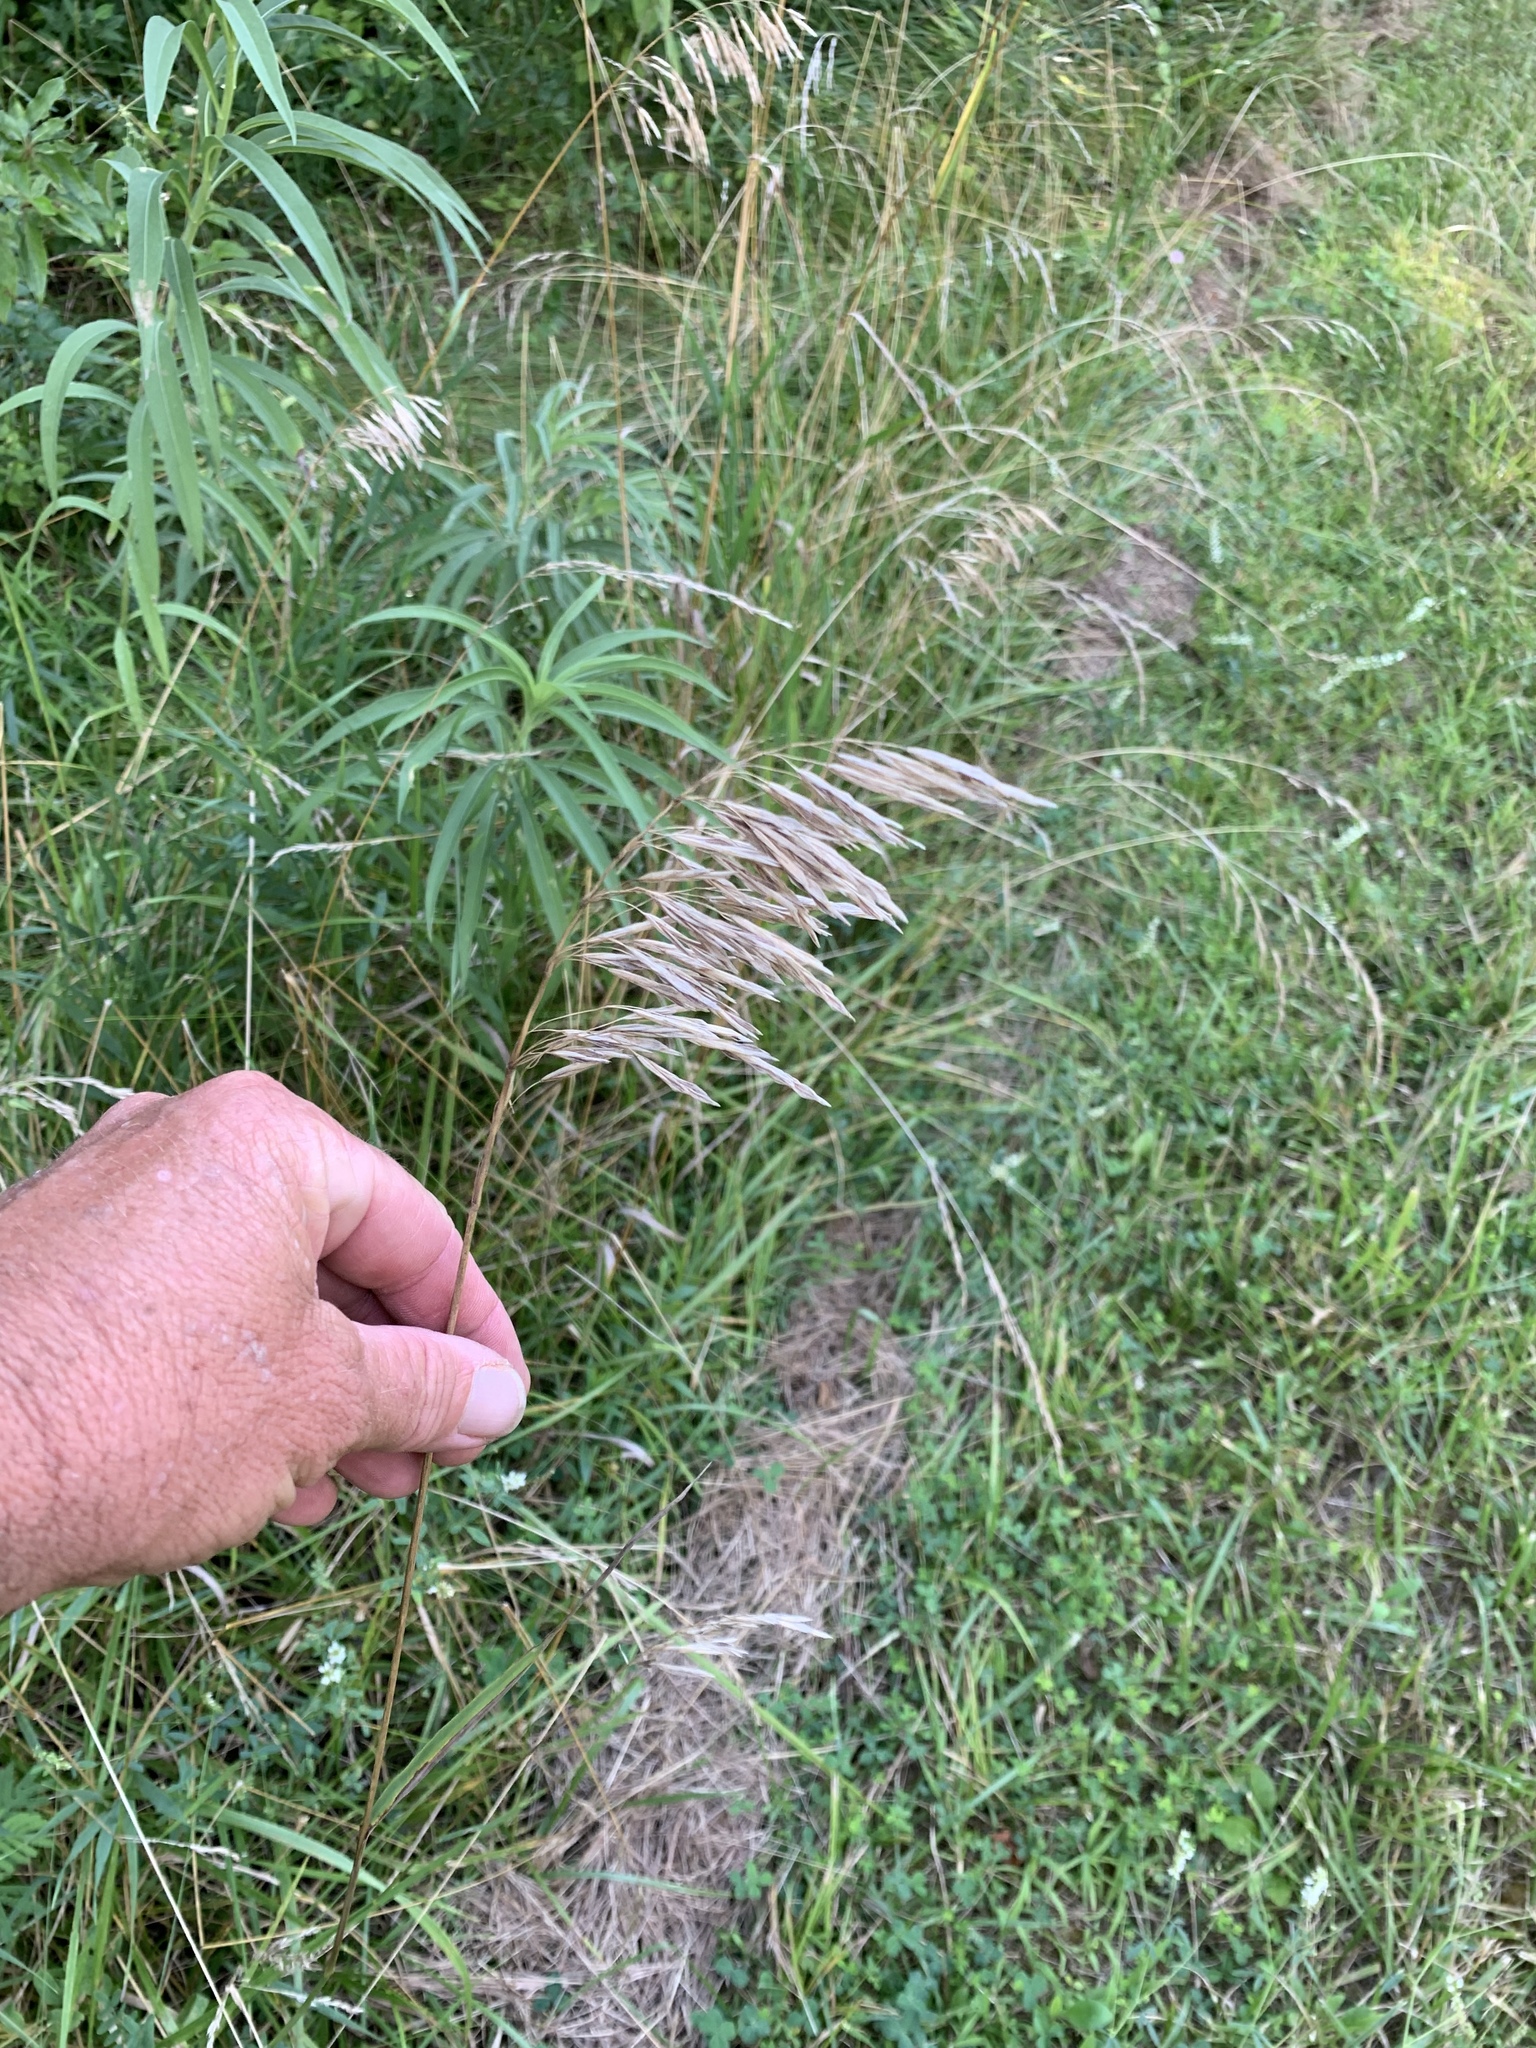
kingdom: Plantae
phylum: Tracheophyta
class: Liliopsida
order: Poales
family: Poaceae
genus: Bromus
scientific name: Bromus inermis
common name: Smooth brome
